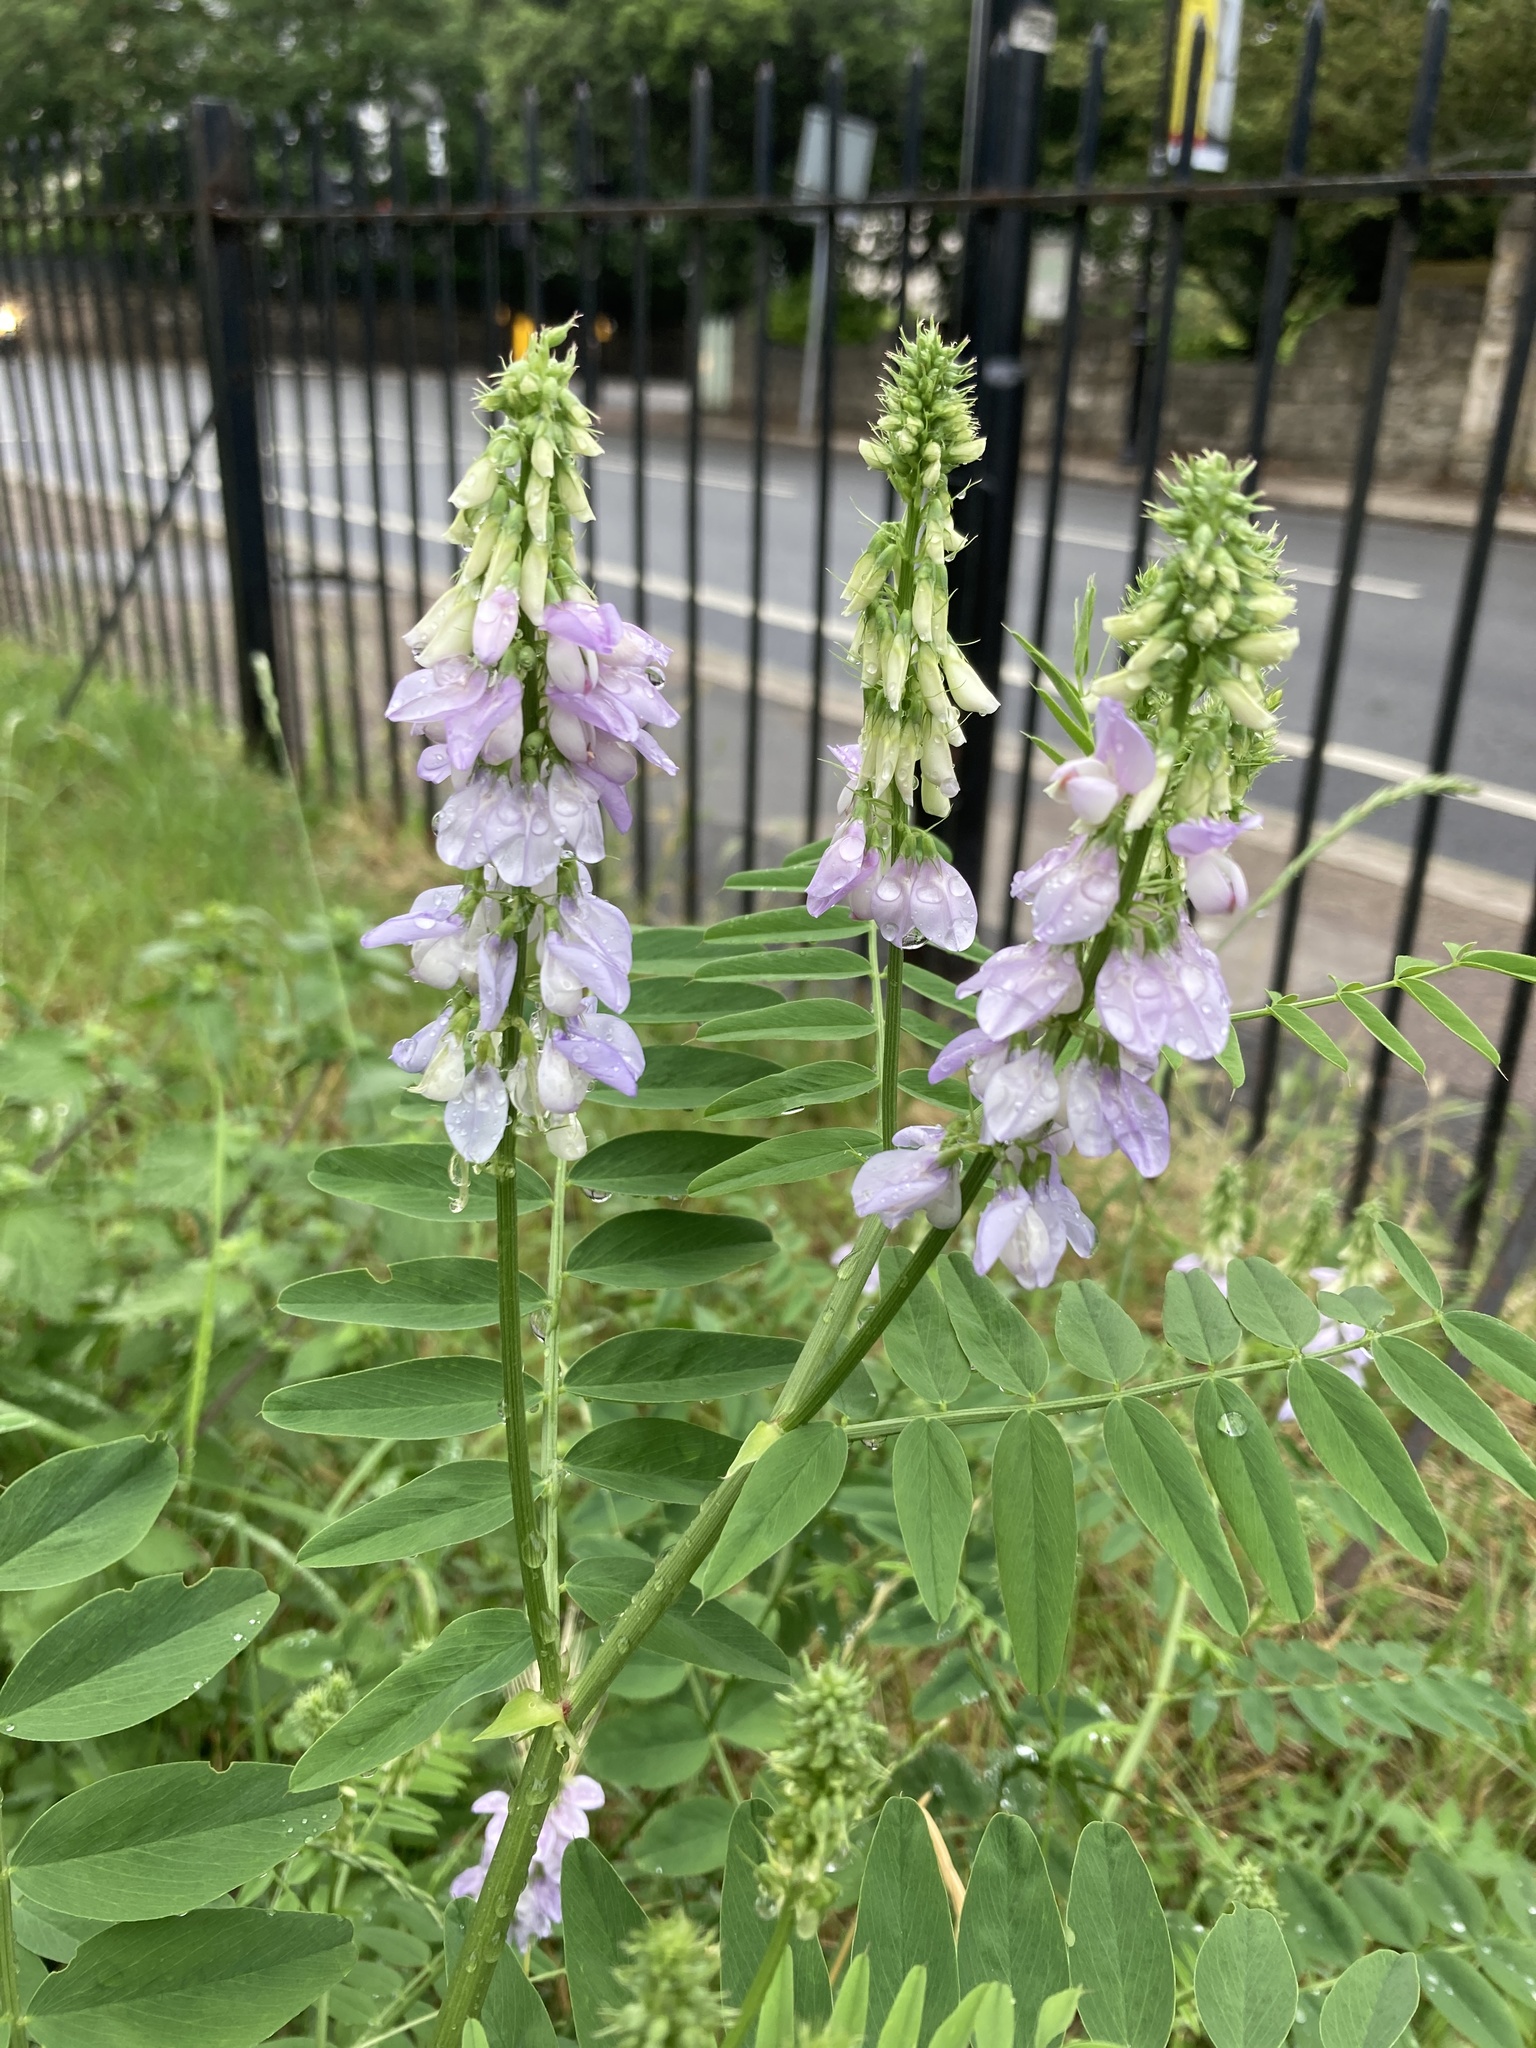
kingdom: Plantae
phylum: Tracheophyta
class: Magnoliopsida
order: Fabales
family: Fabaceae
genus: Galega
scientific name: Galega officinalis
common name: Goat's-rue
